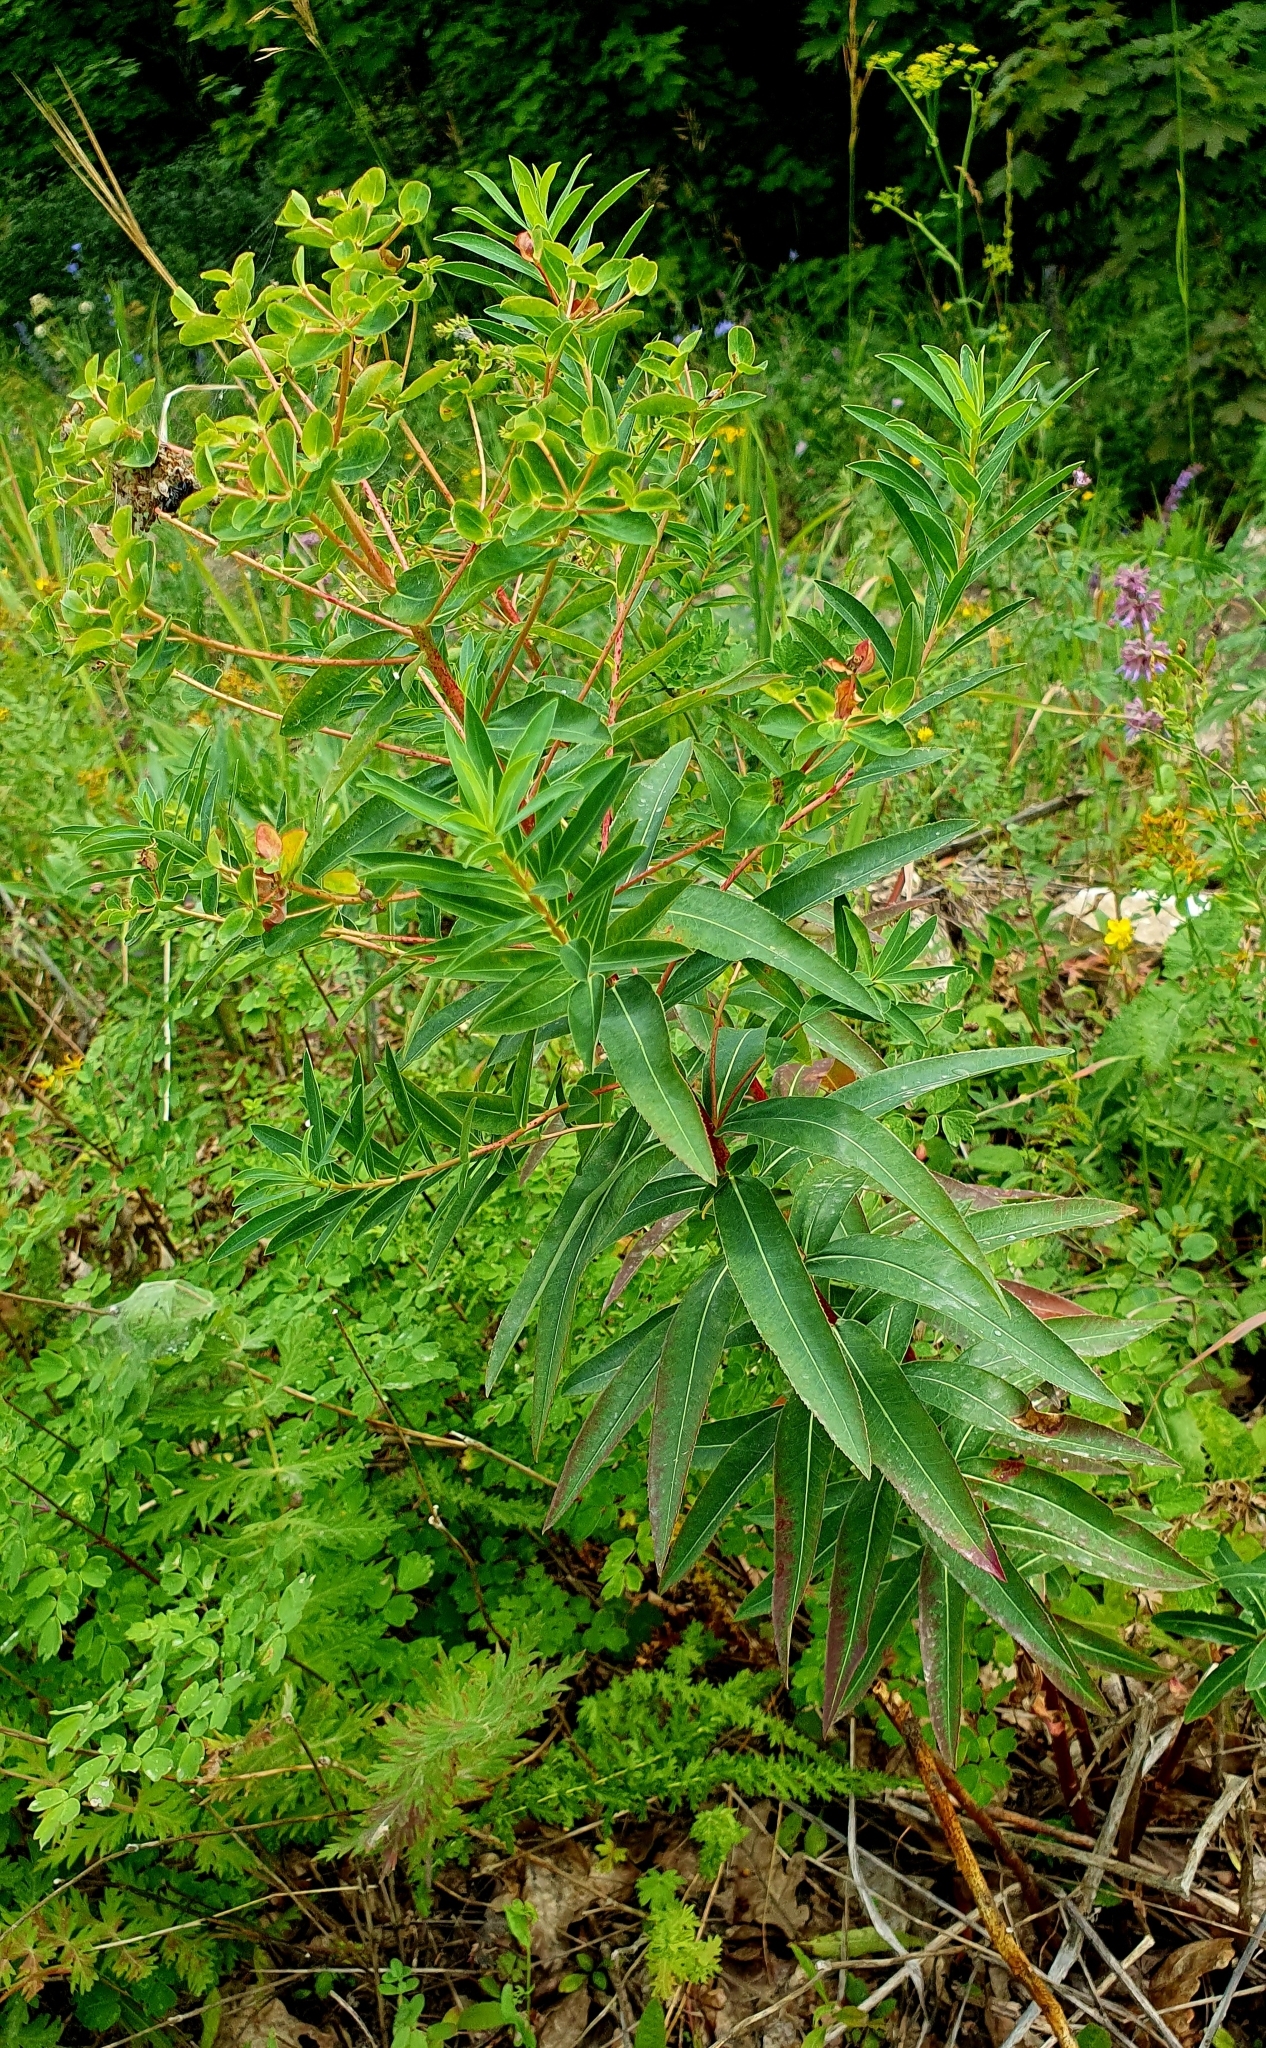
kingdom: Plantae
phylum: Tracheophyta
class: Magnoliopsida
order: Malpighiales
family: Euphorbiaceae
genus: Euphorbia
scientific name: Euphorbia semivillosa
